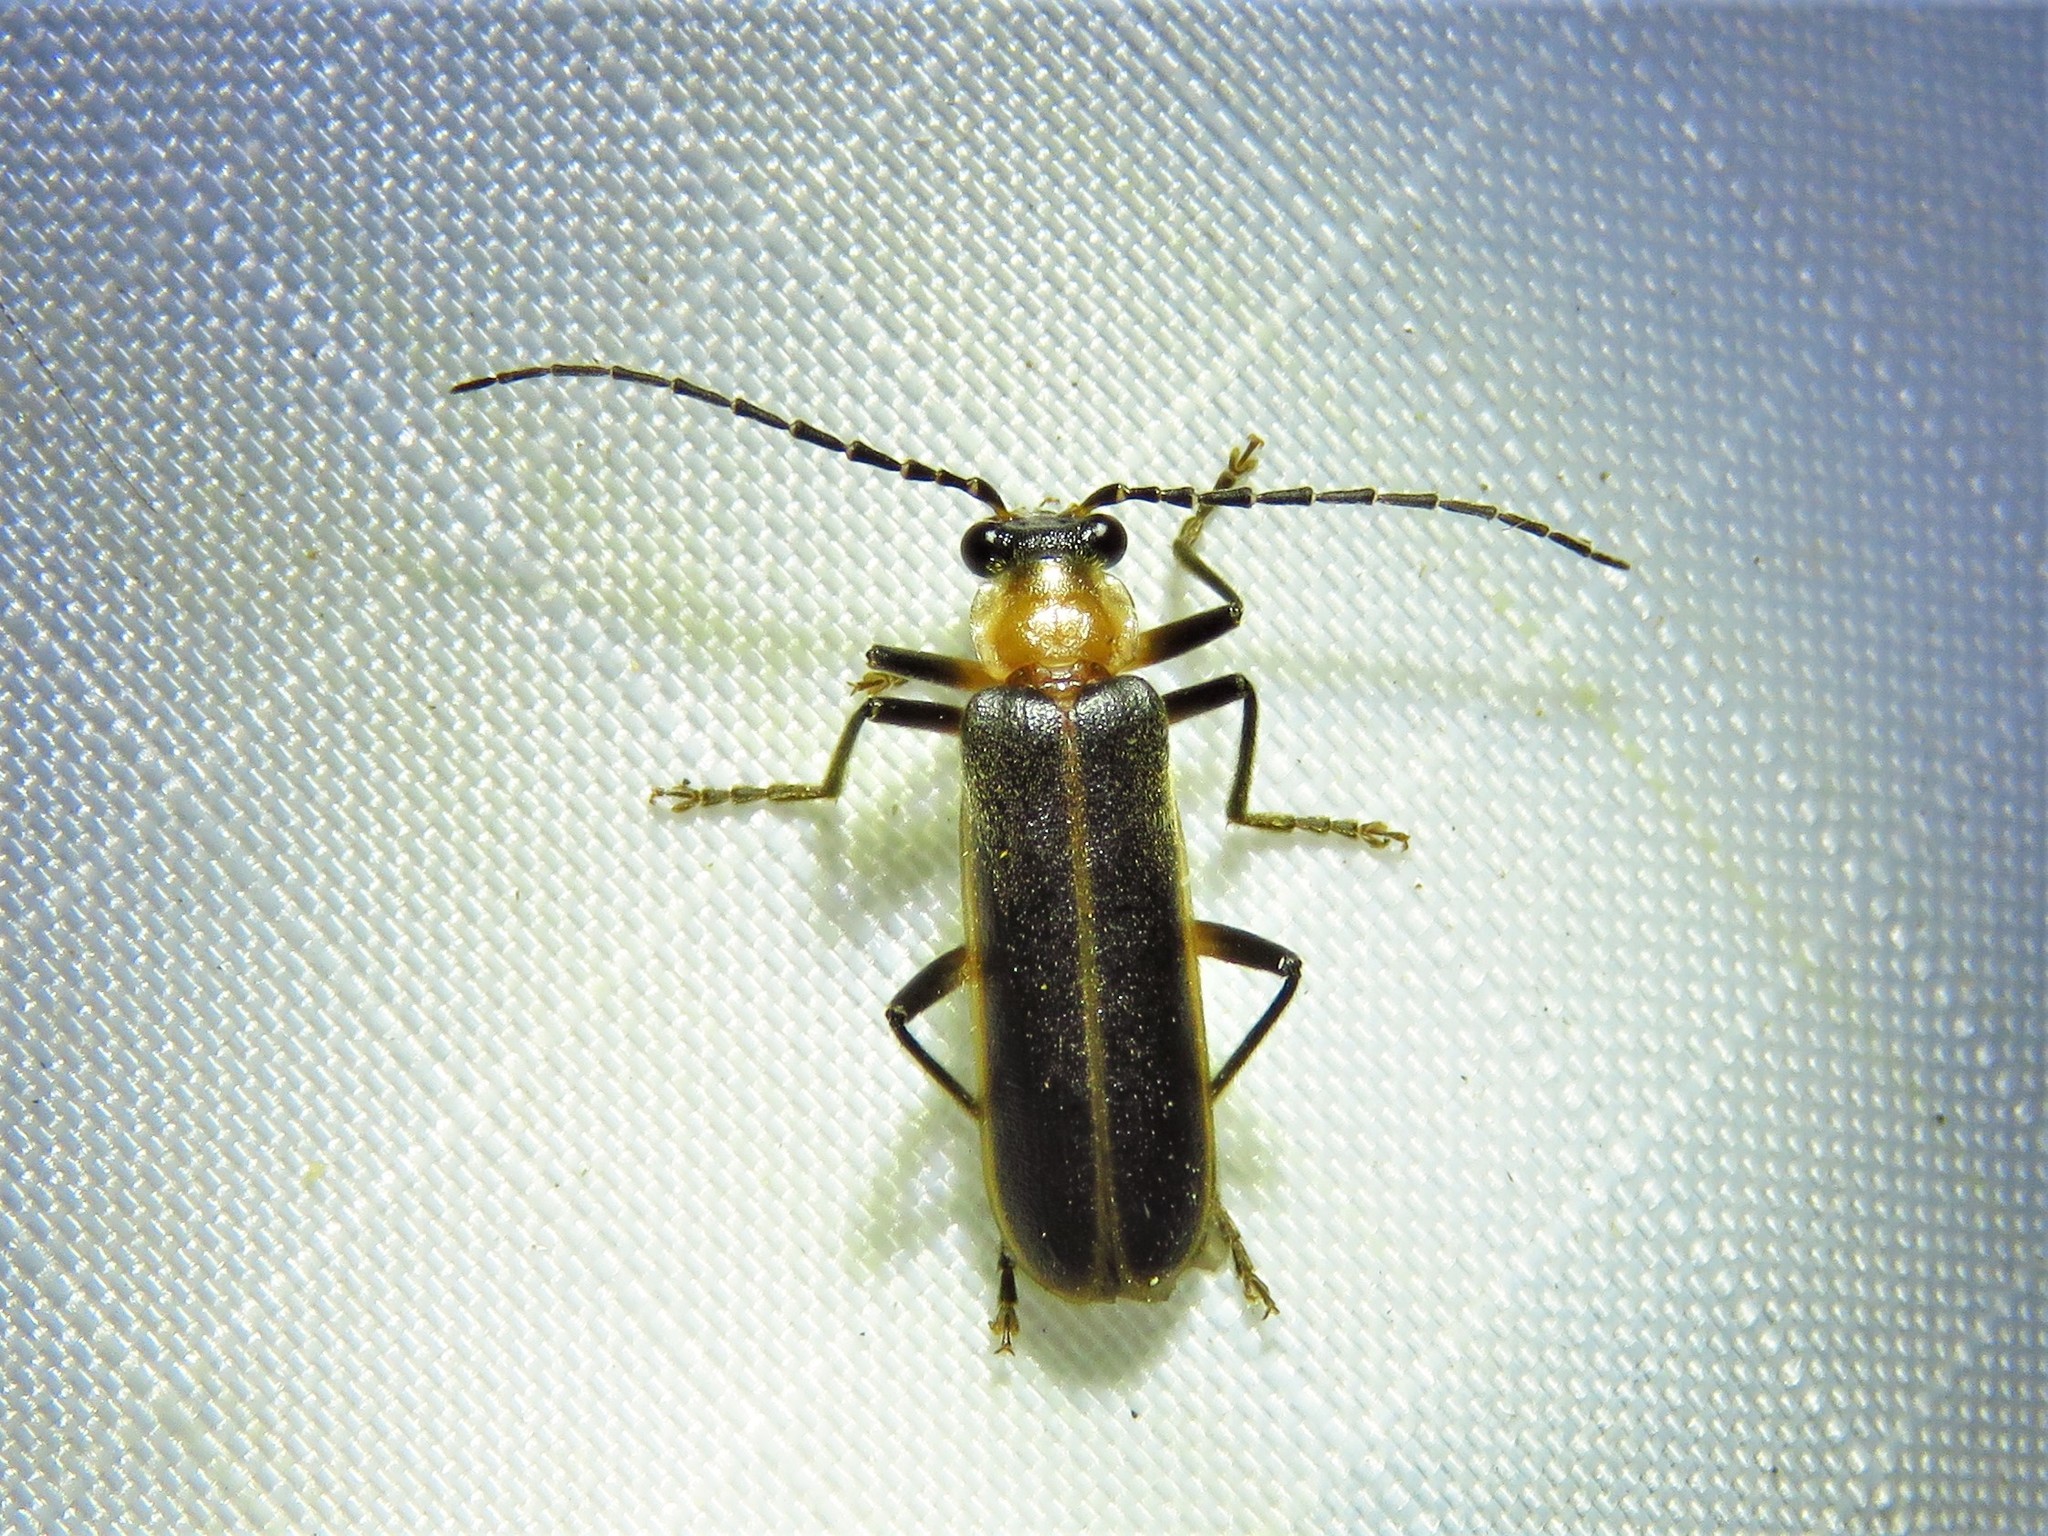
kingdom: Animalia
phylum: Arthropoda
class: Insecta
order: Coleoptera
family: Cantharidae
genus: Podabrus
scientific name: Podabrus flavicollis
